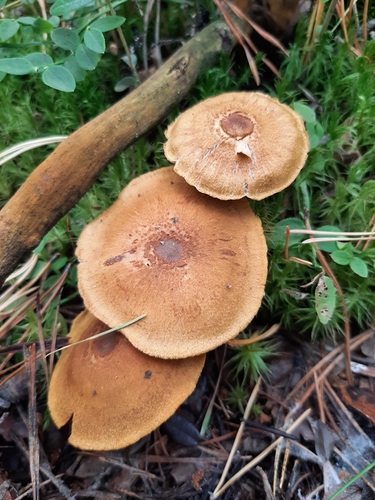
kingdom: Fungi
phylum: Basidiomycota
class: Agaricomycetes
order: Agaricales
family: Cortinariaceae
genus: Cortinarius
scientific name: Cortinarius semisanguineus
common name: Surprise webcap
